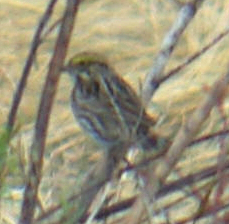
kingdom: Animalia
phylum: Chordata
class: Aves
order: Passeriformes
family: Passerellidae
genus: Passerculus
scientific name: Passerculus sandwichensis
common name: Savannah sparrow
